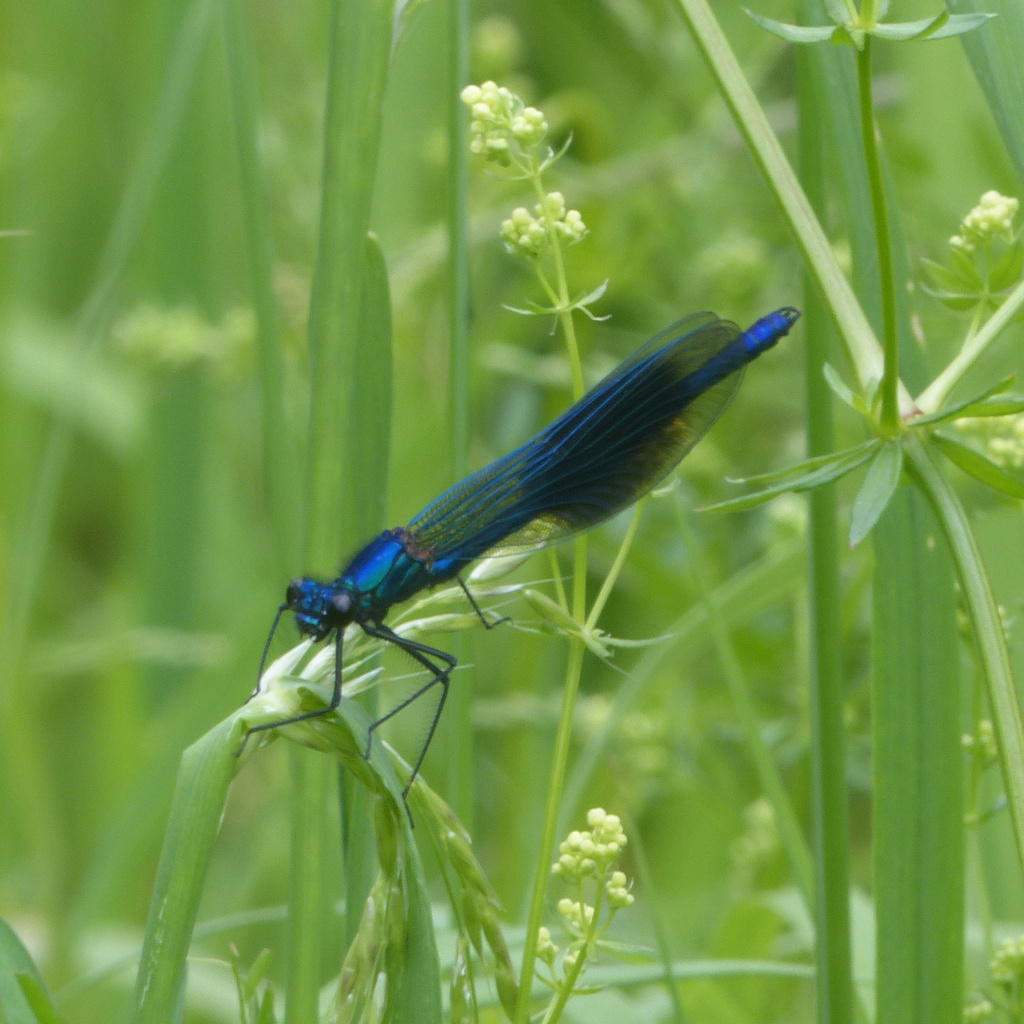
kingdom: Animalia
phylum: Arthropoda
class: Insecta
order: Odonata
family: Calopterygidae
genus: Calopteryx
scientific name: Calopteryx splendens
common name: Banded demoiselle
